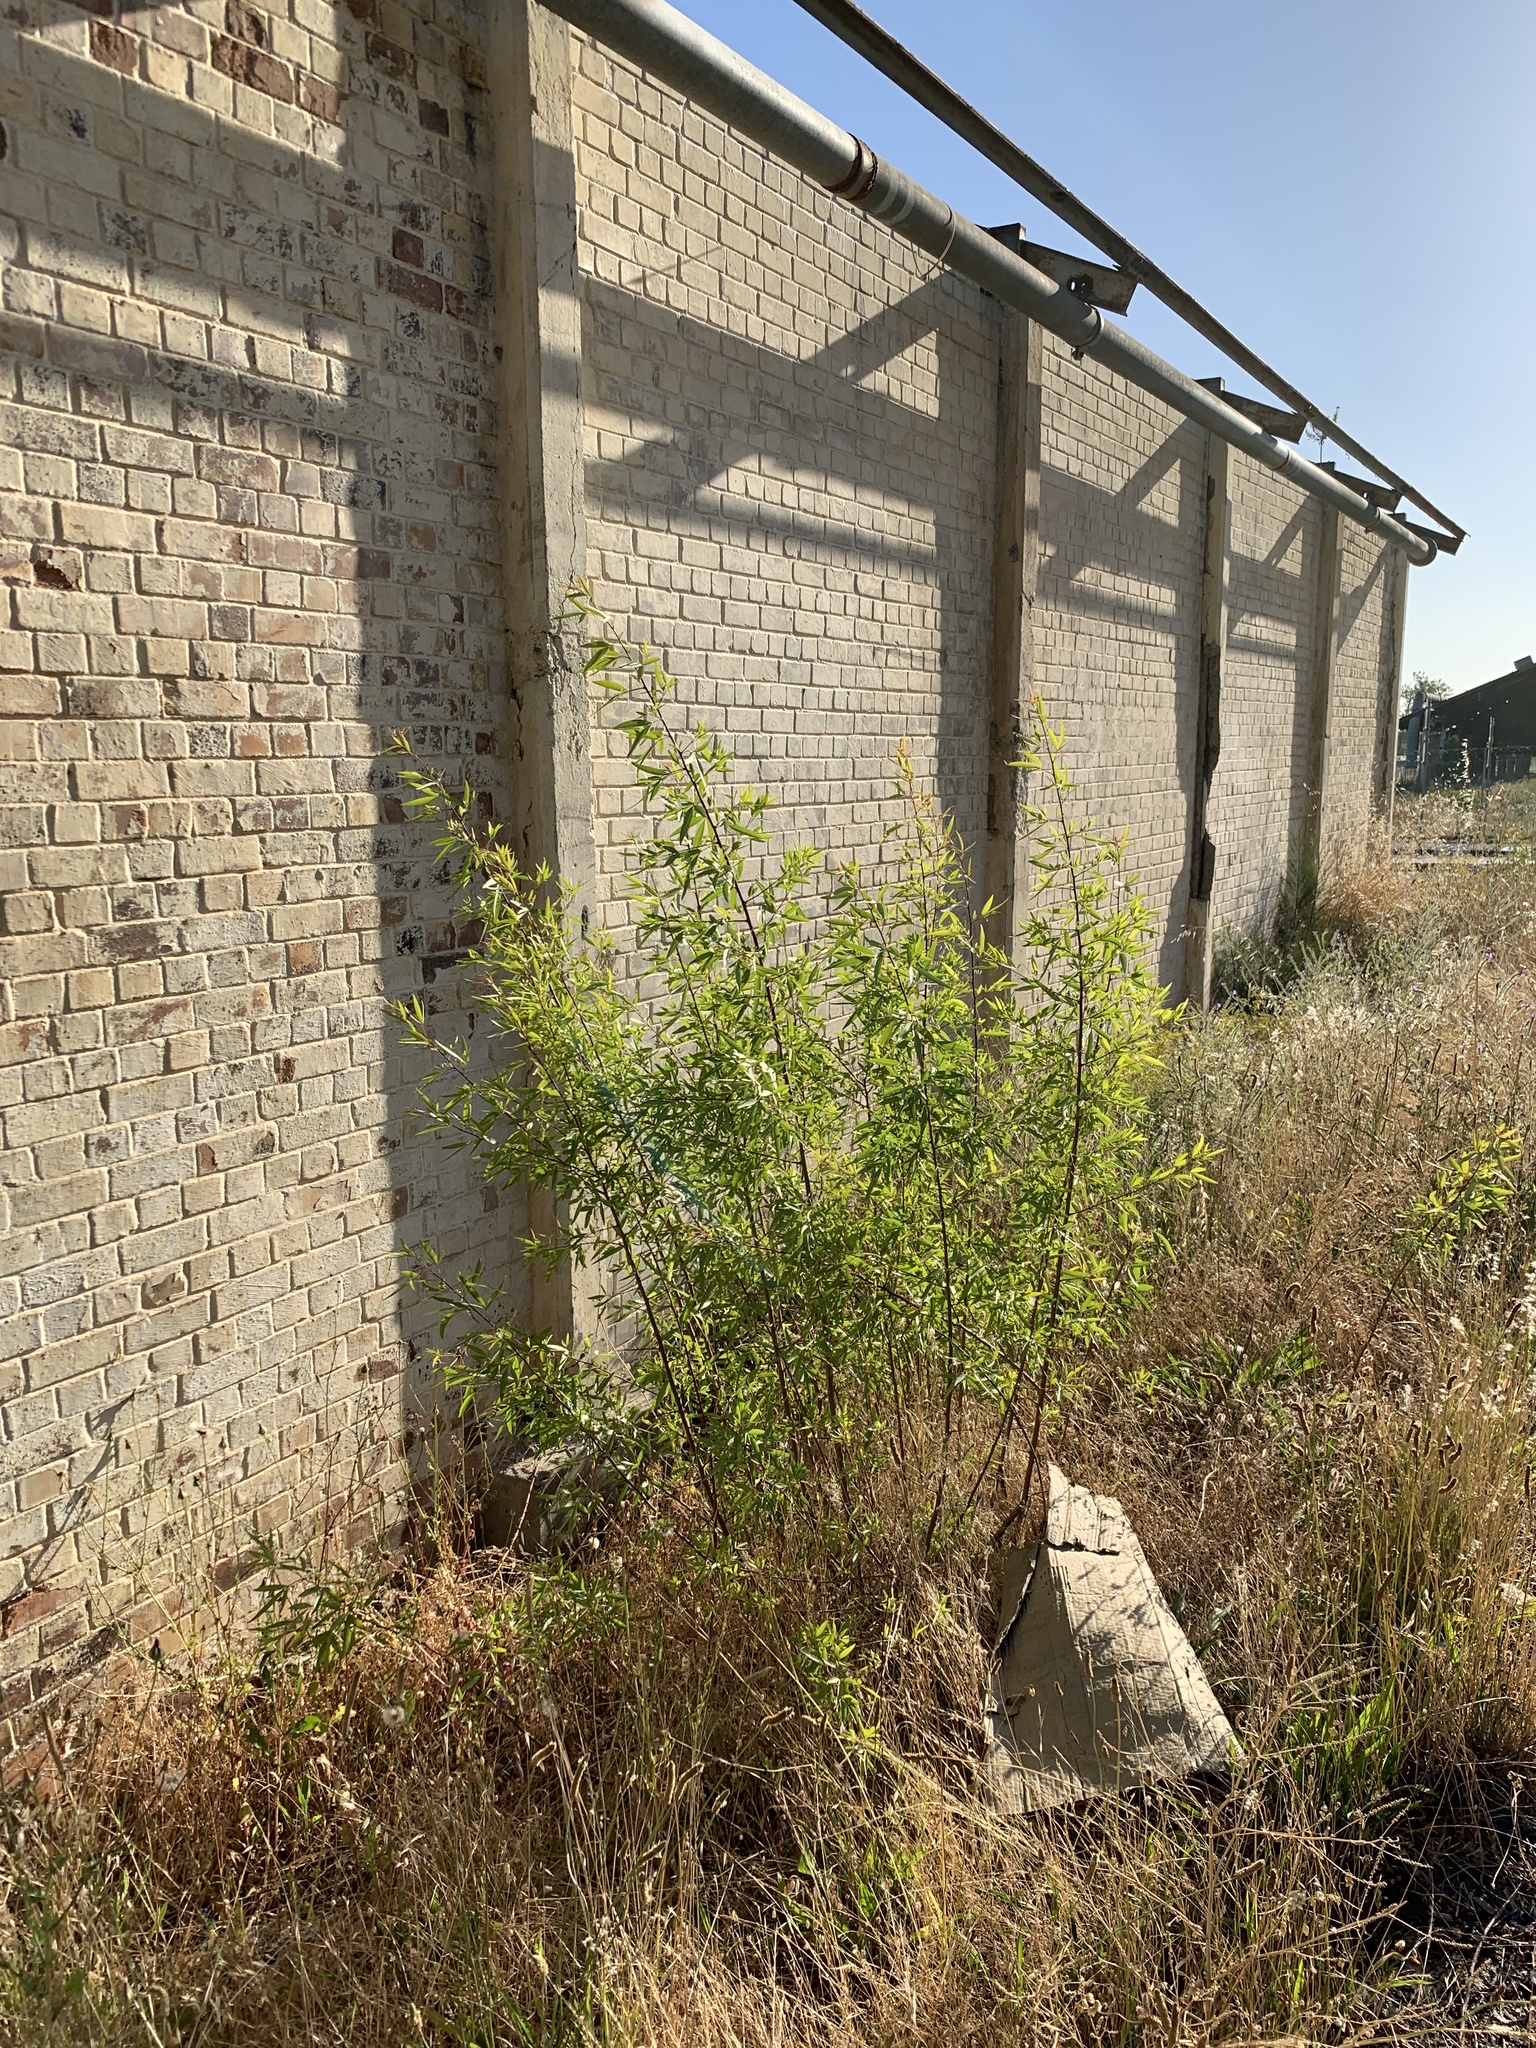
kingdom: Plantae
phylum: Tracheophyta
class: Magnoliopsida
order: Sapindales
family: Anacardiaceae
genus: Searsia
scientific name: Searsia pendulina
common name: White karee
